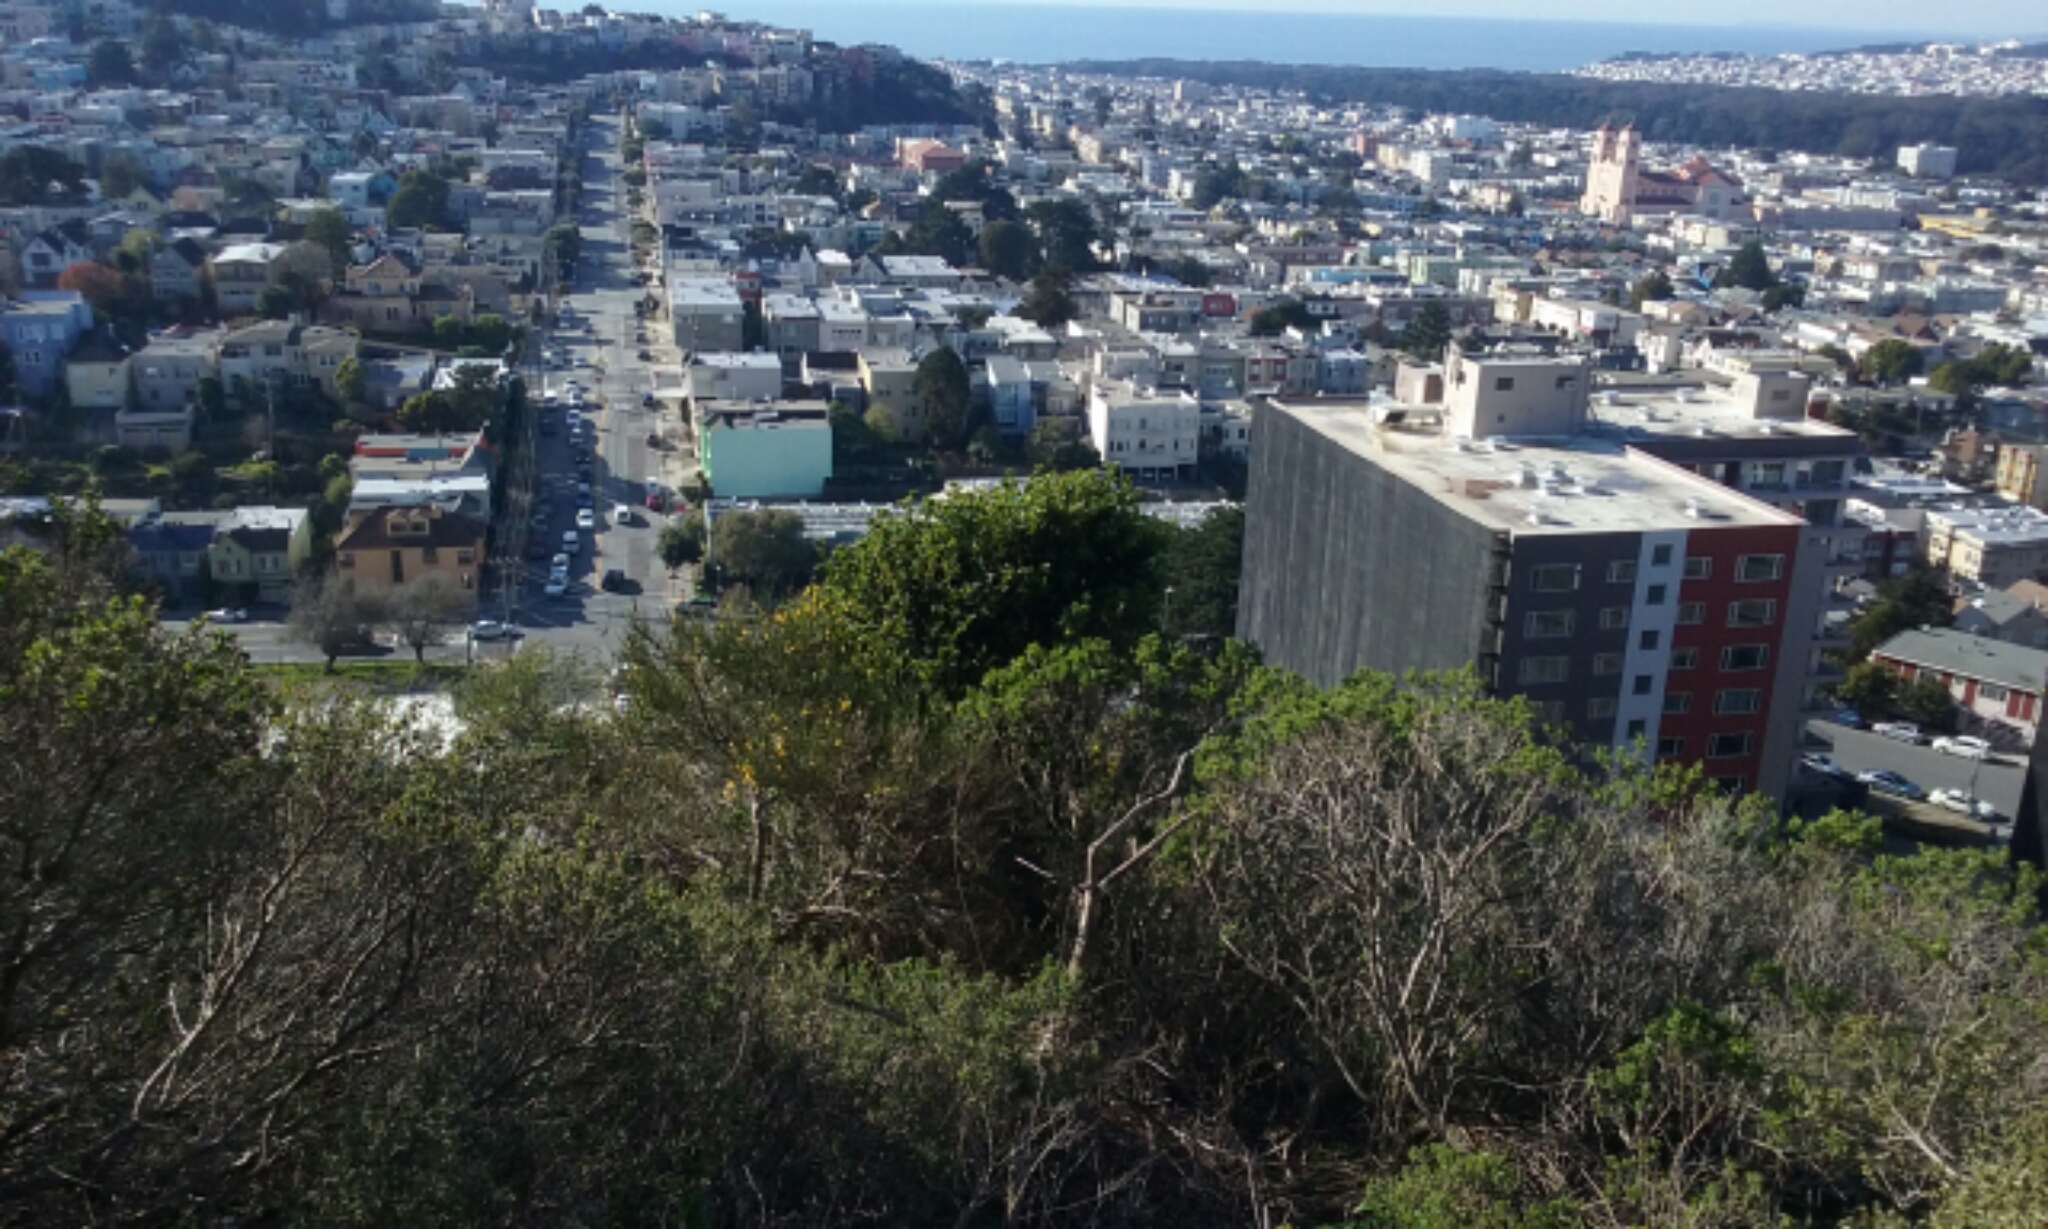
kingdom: Plantae
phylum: Tracheophyta
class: Magnoliopsida
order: Fagales
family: Fagaceae
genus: Quercus
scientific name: Quercus agrifolia
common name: California live oak
